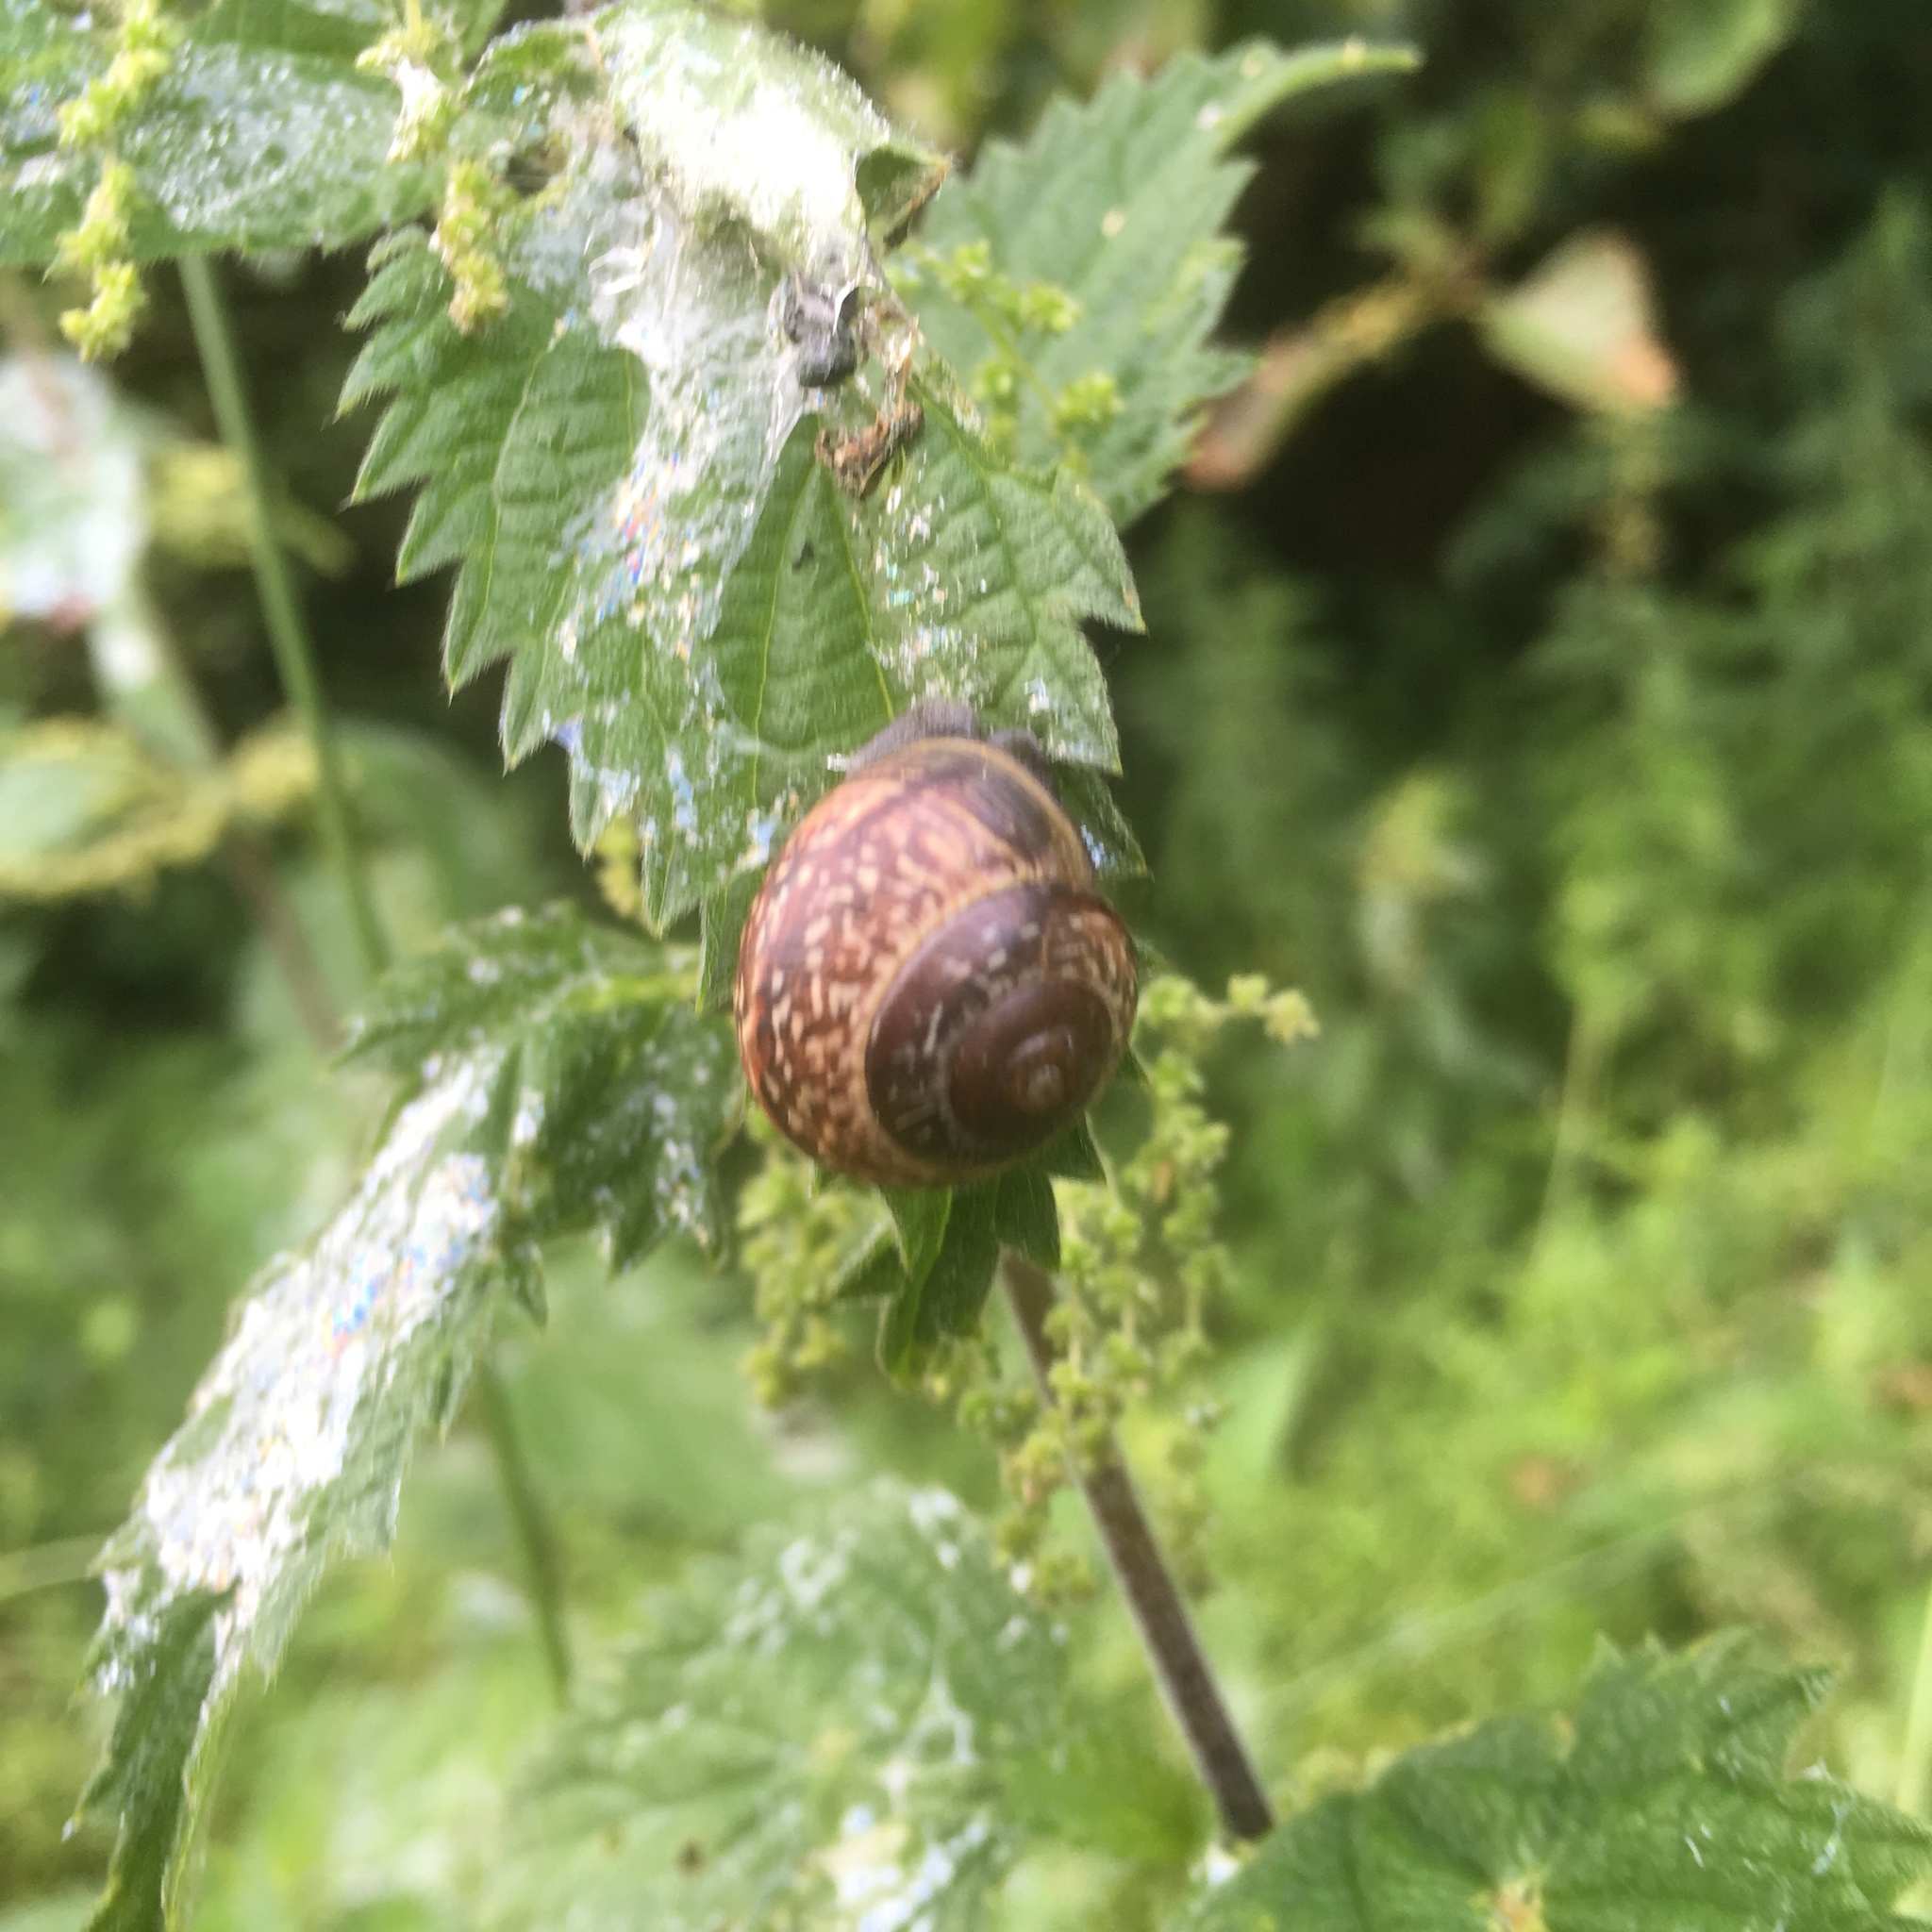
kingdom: Animalia
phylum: Mollusca
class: Gastropoda
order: Stylommatophora
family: Helicidae
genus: Arianta
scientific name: Arianta arbustorum
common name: Copse snail
